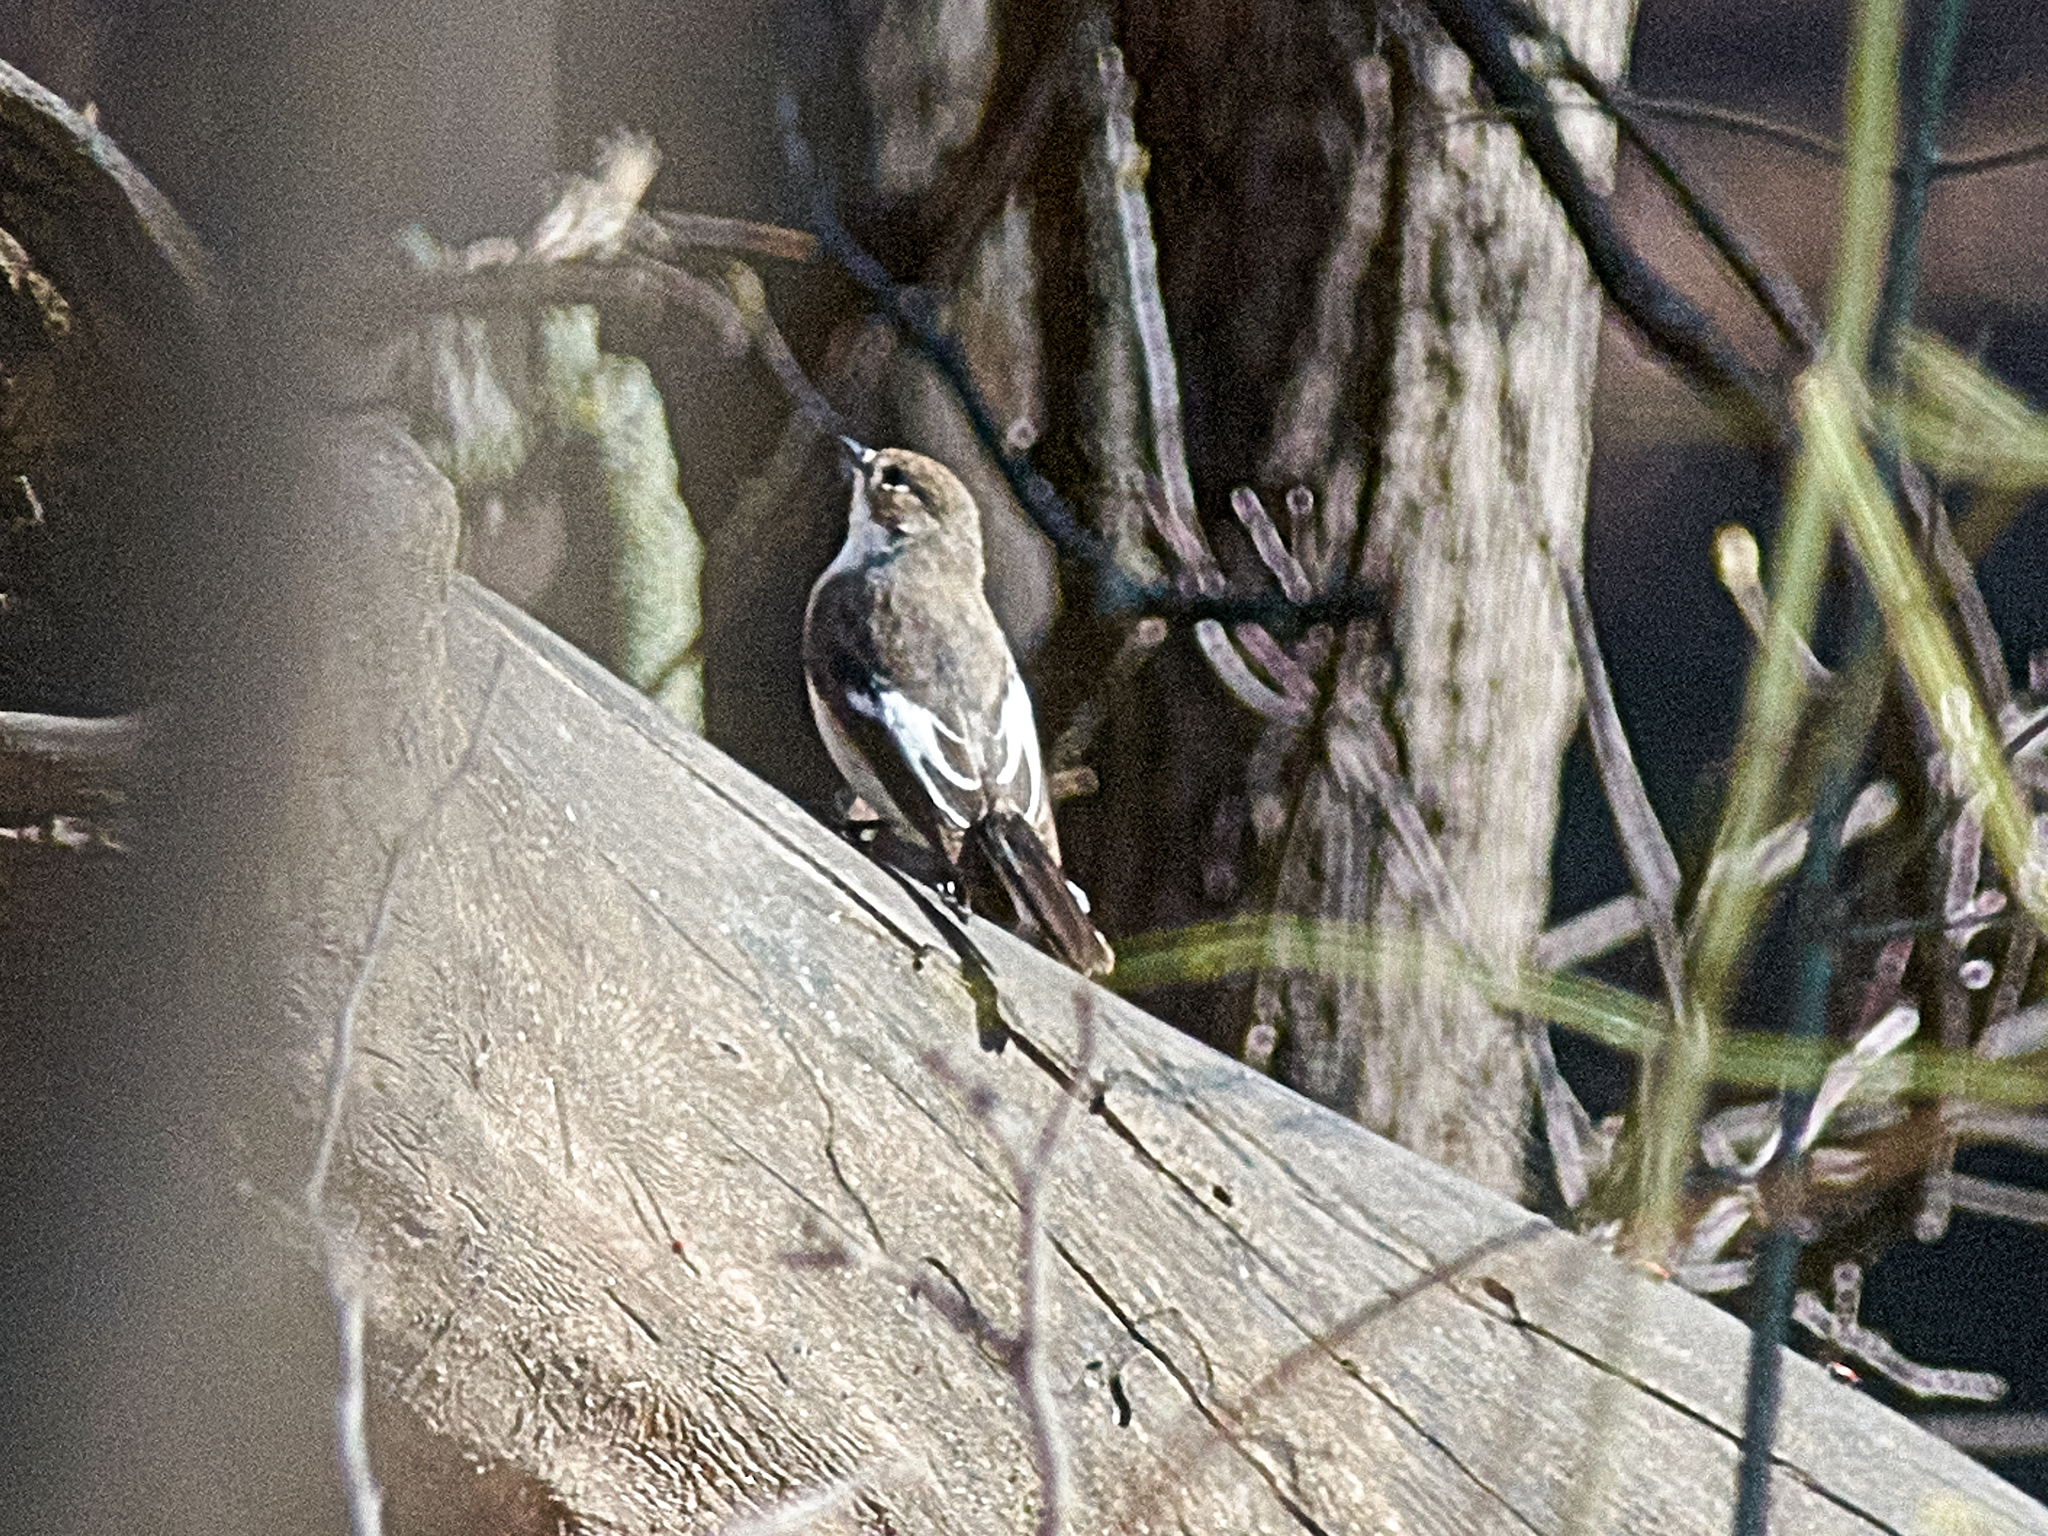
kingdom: Animalia
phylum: Chordata
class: Aves
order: Passeriformes
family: Muscicapidae
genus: Ficedula
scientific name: Ficedula hypoleuca
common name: European pied flycatcher
